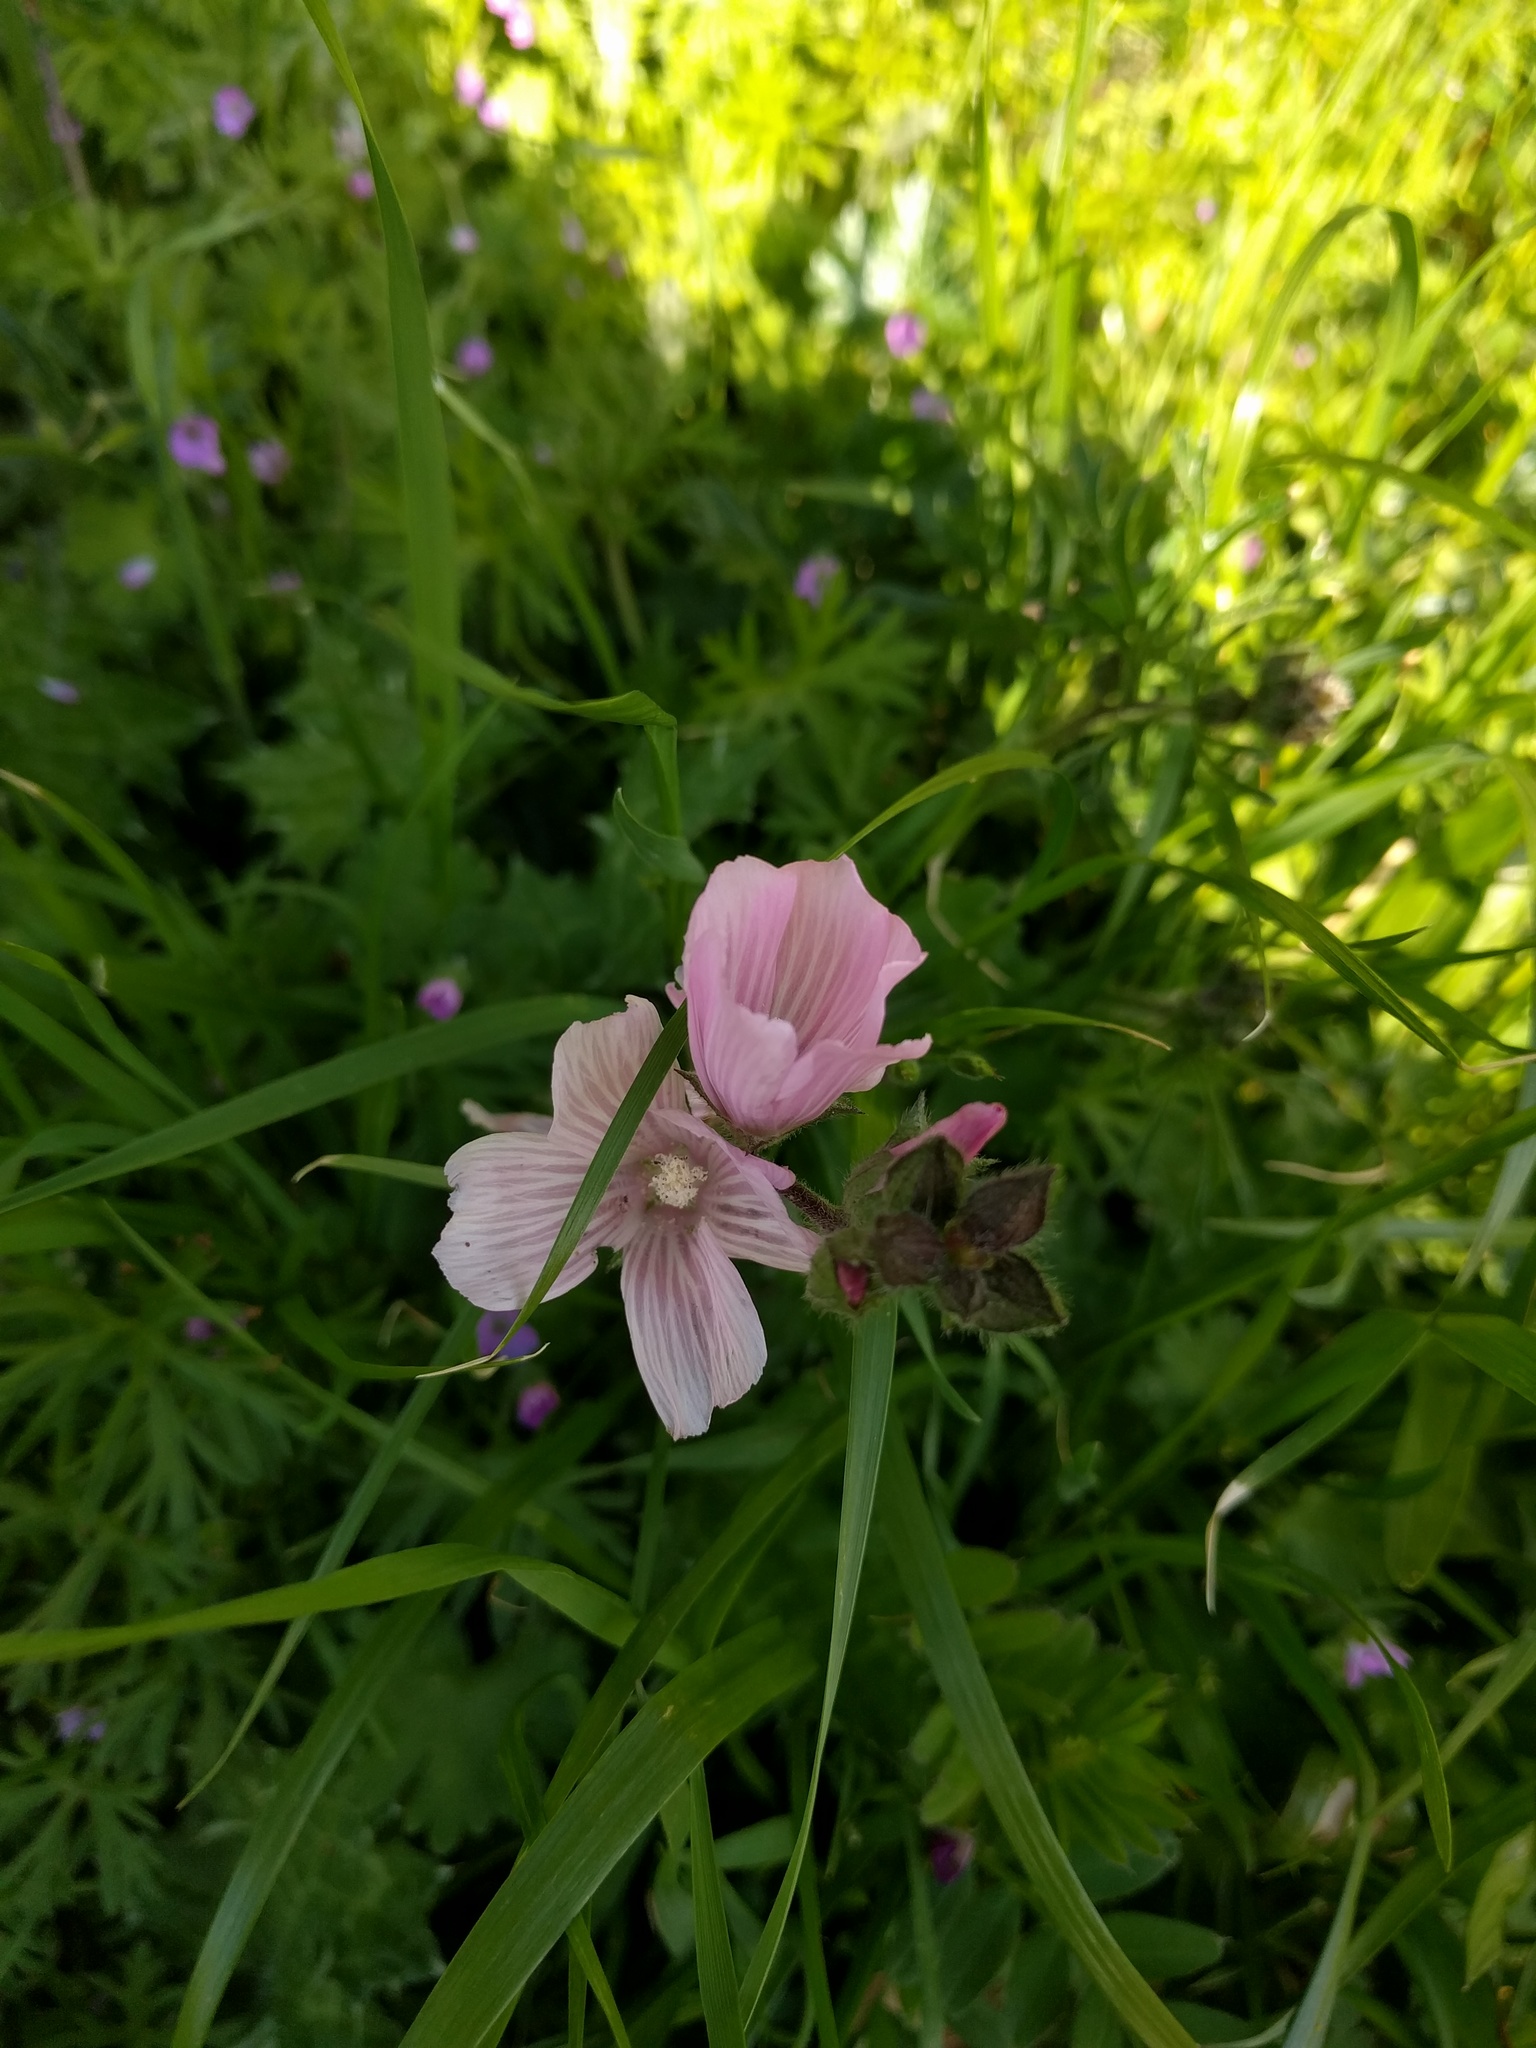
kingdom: Plantae
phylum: Tracheophyta
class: Magnoliopsida
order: Malvales
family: Malvaceae
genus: Sidalcea
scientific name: Sidalcea malviflora
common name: Greek mallow
